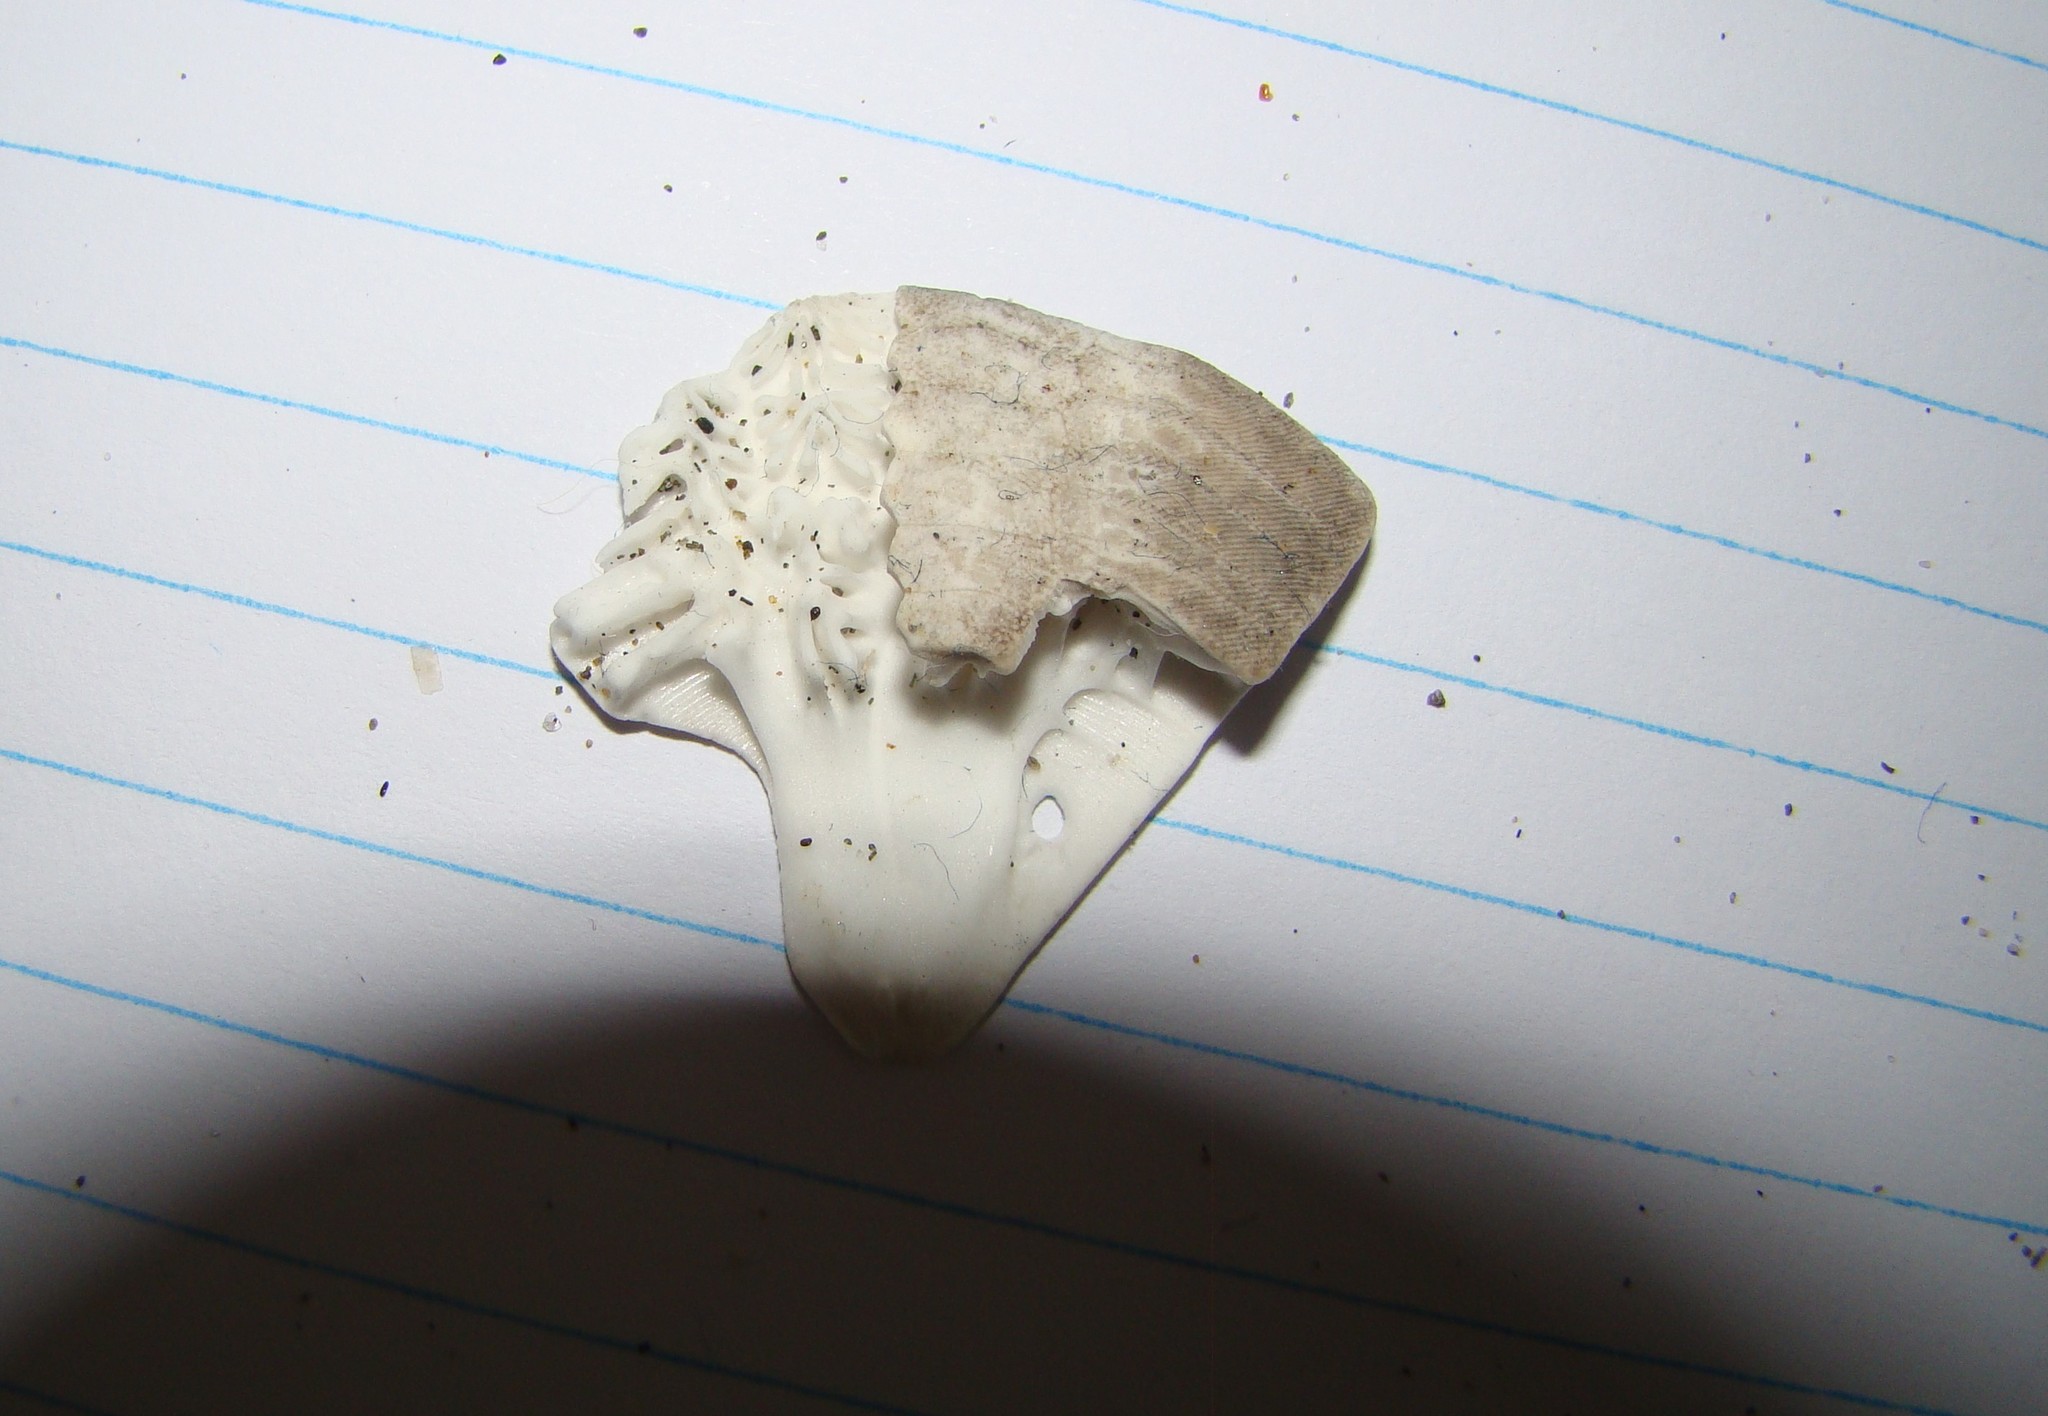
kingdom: Animalia
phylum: Echinodermata
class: Echinoidea
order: Clypeasteroida
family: Clypeasteridae
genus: Fellaster
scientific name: Fellaster zelandiae
